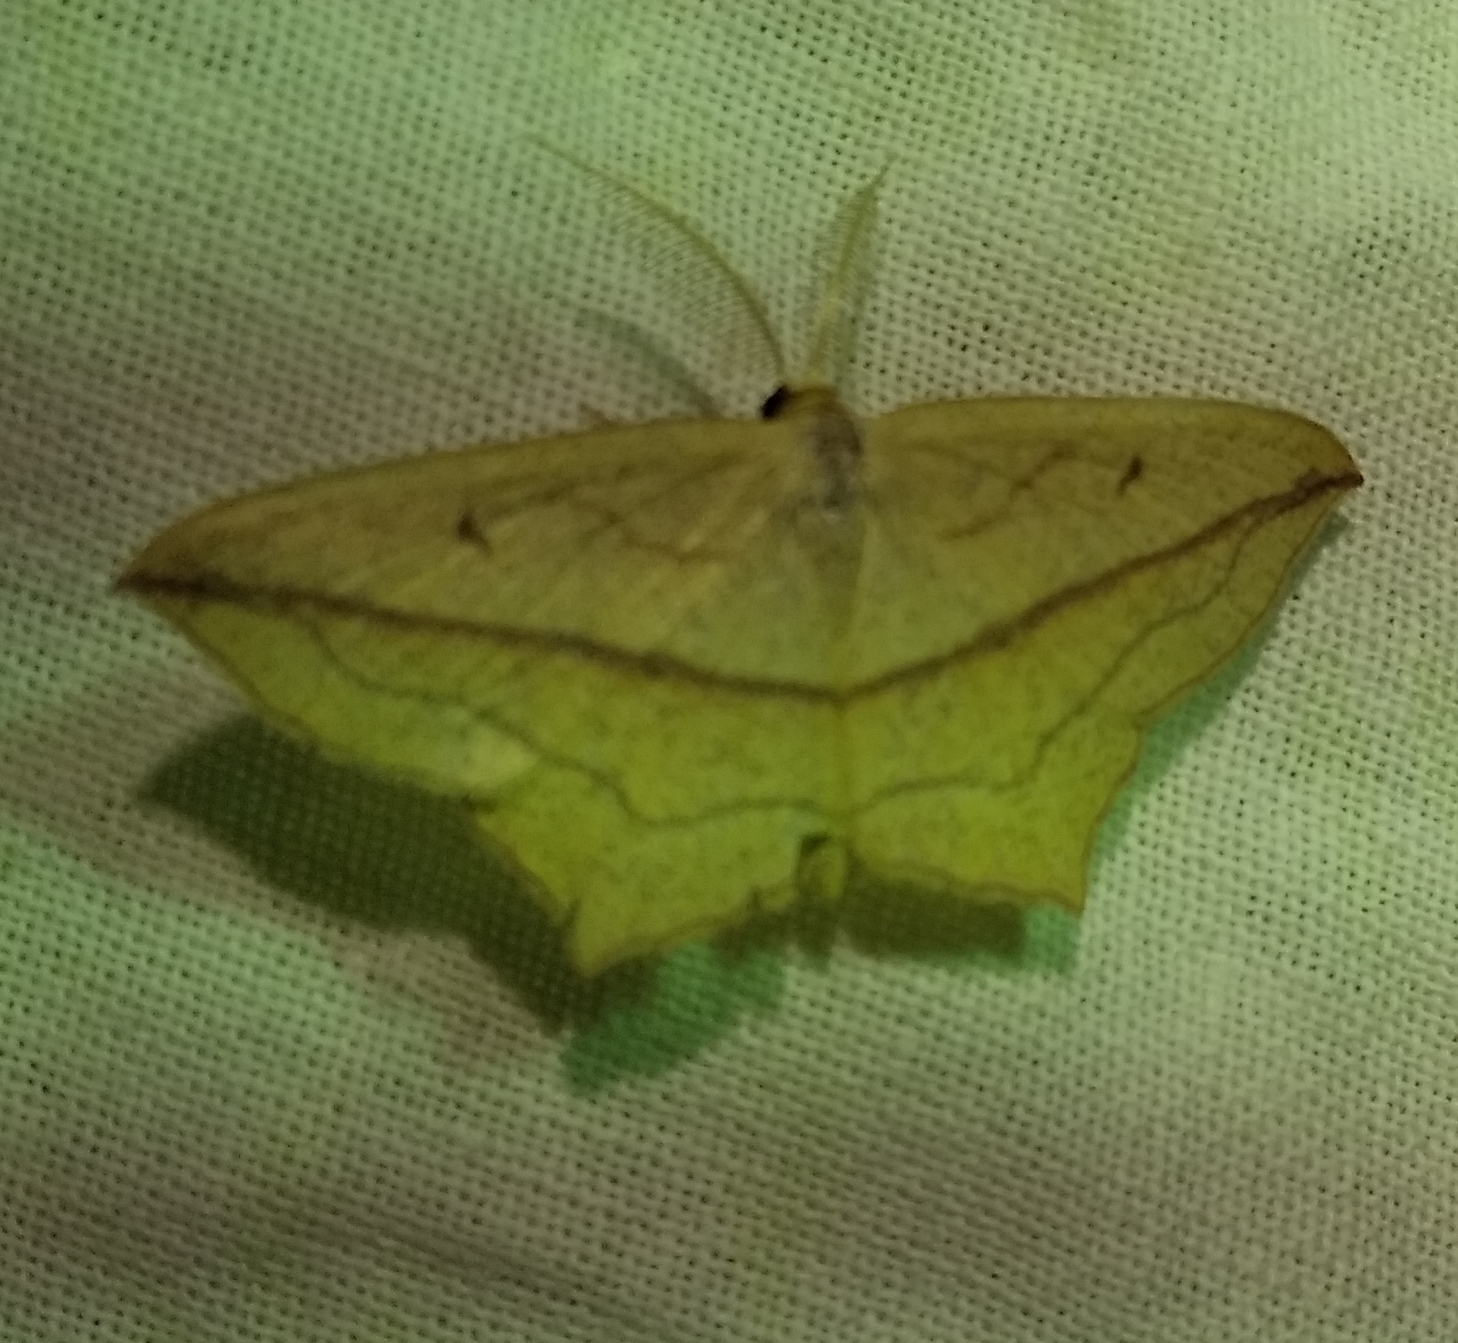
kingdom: Animalia
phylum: Arthropoda
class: Insecta
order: Lepidoptera
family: Geometridae
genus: Timandra
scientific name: Timandra comae
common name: Blood-vein
